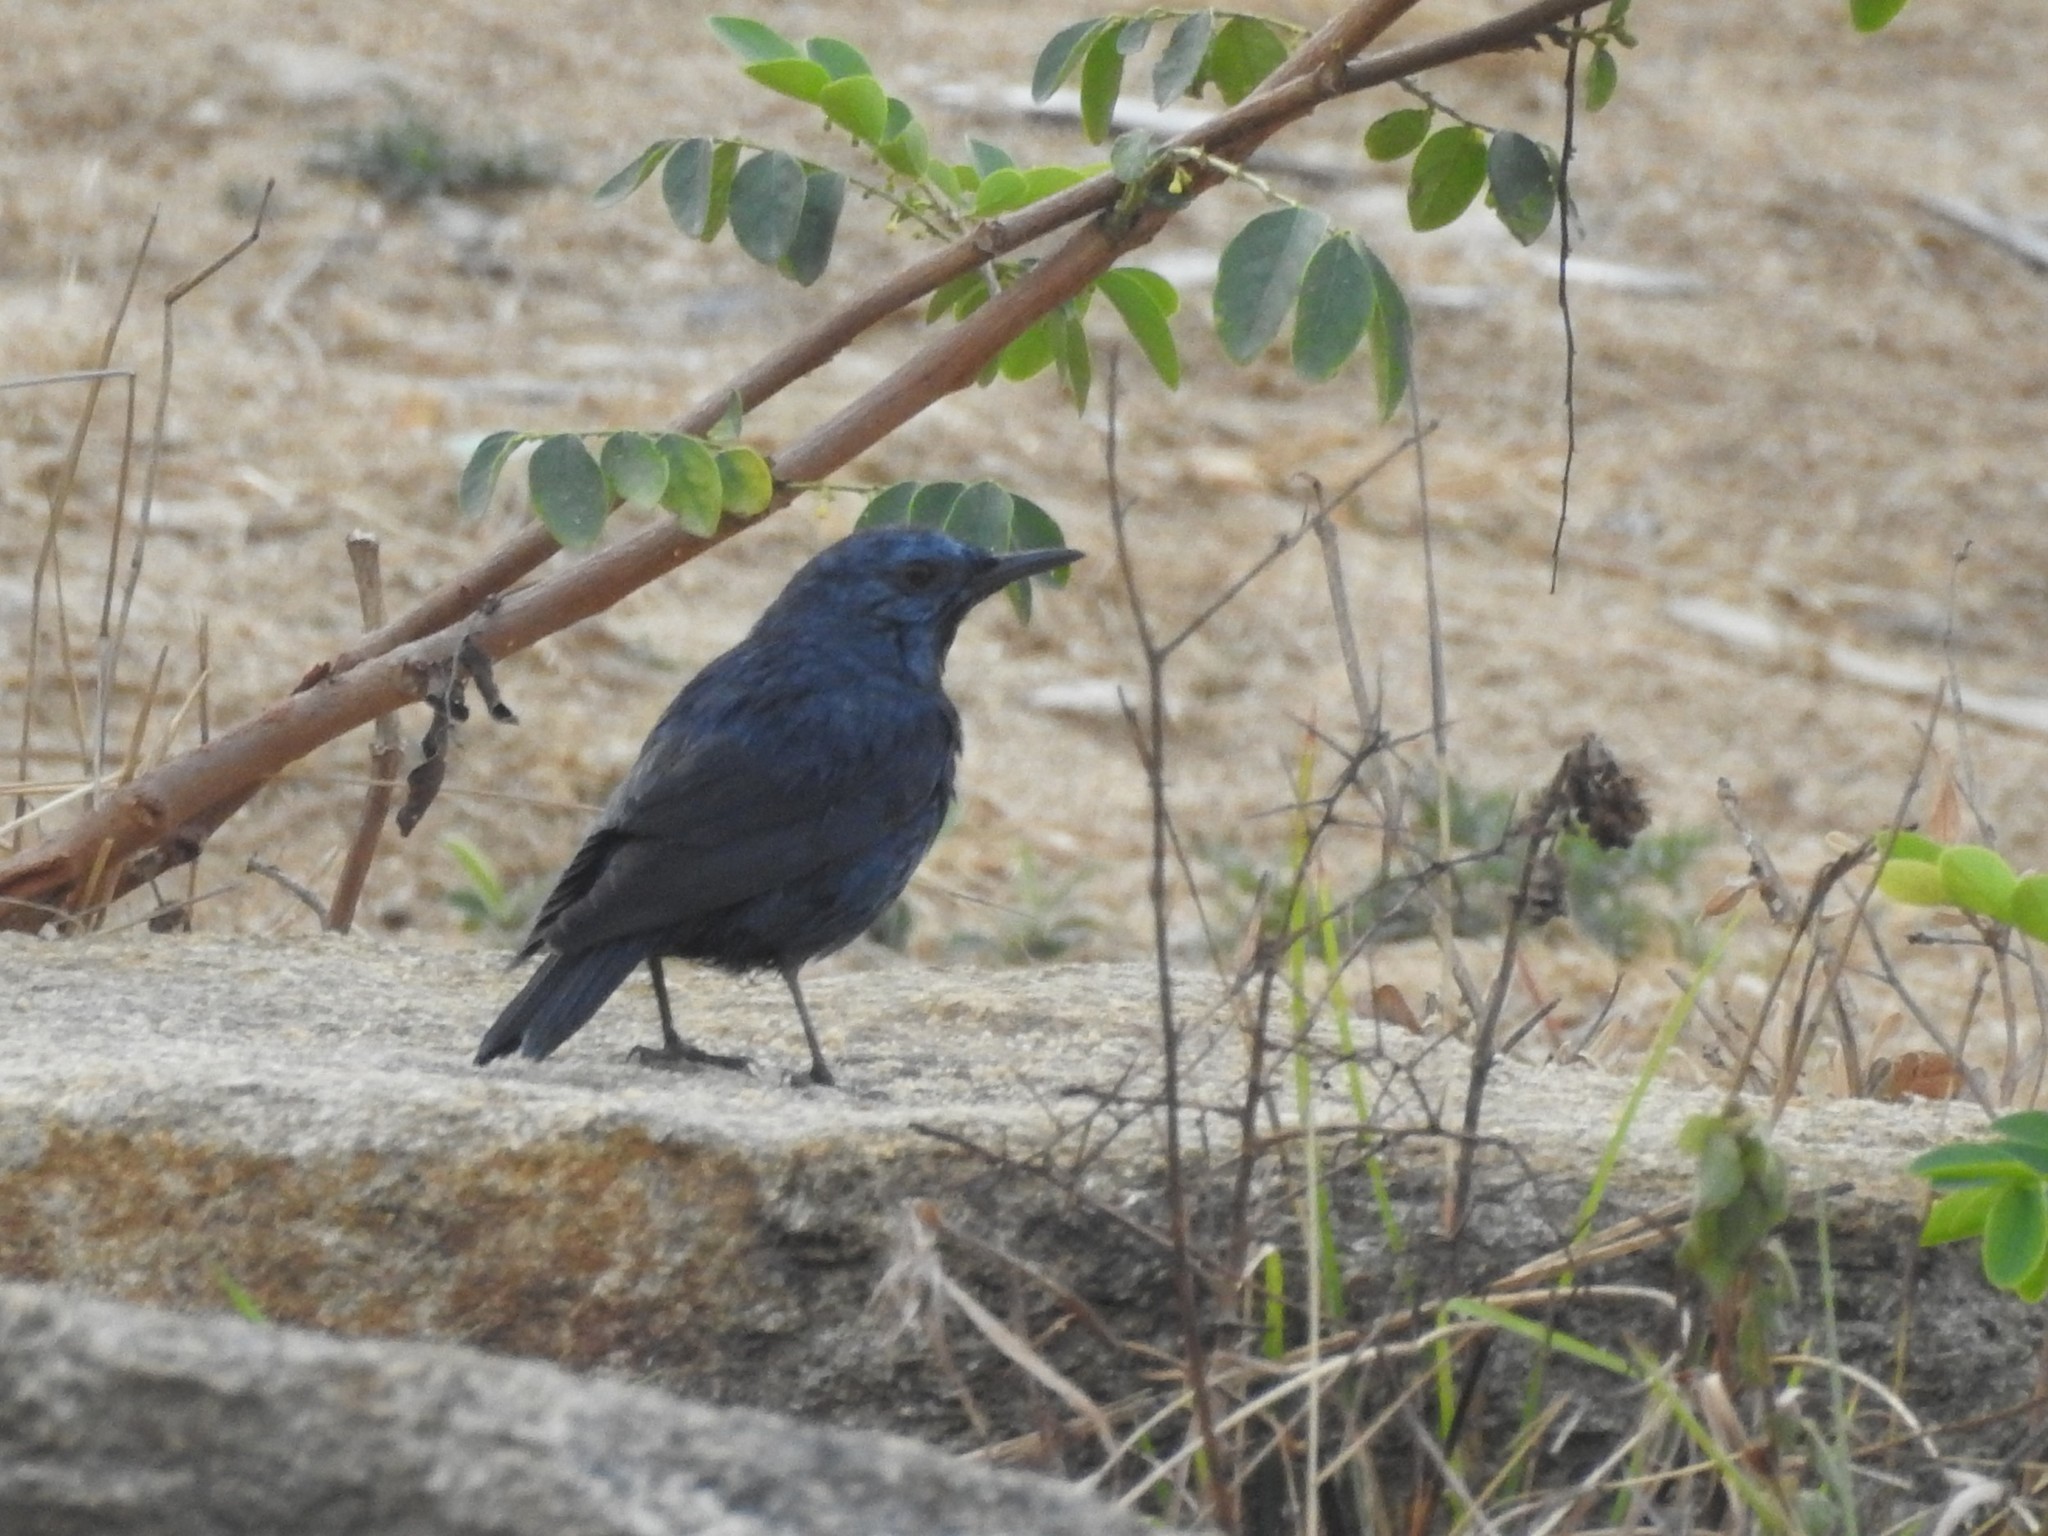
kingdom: Animalia
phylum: Chordata
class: Aves
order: Passeriformes
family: Muscicapidae
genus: Monticola
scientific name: Monticola solitarius
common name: Blue rock thrush
